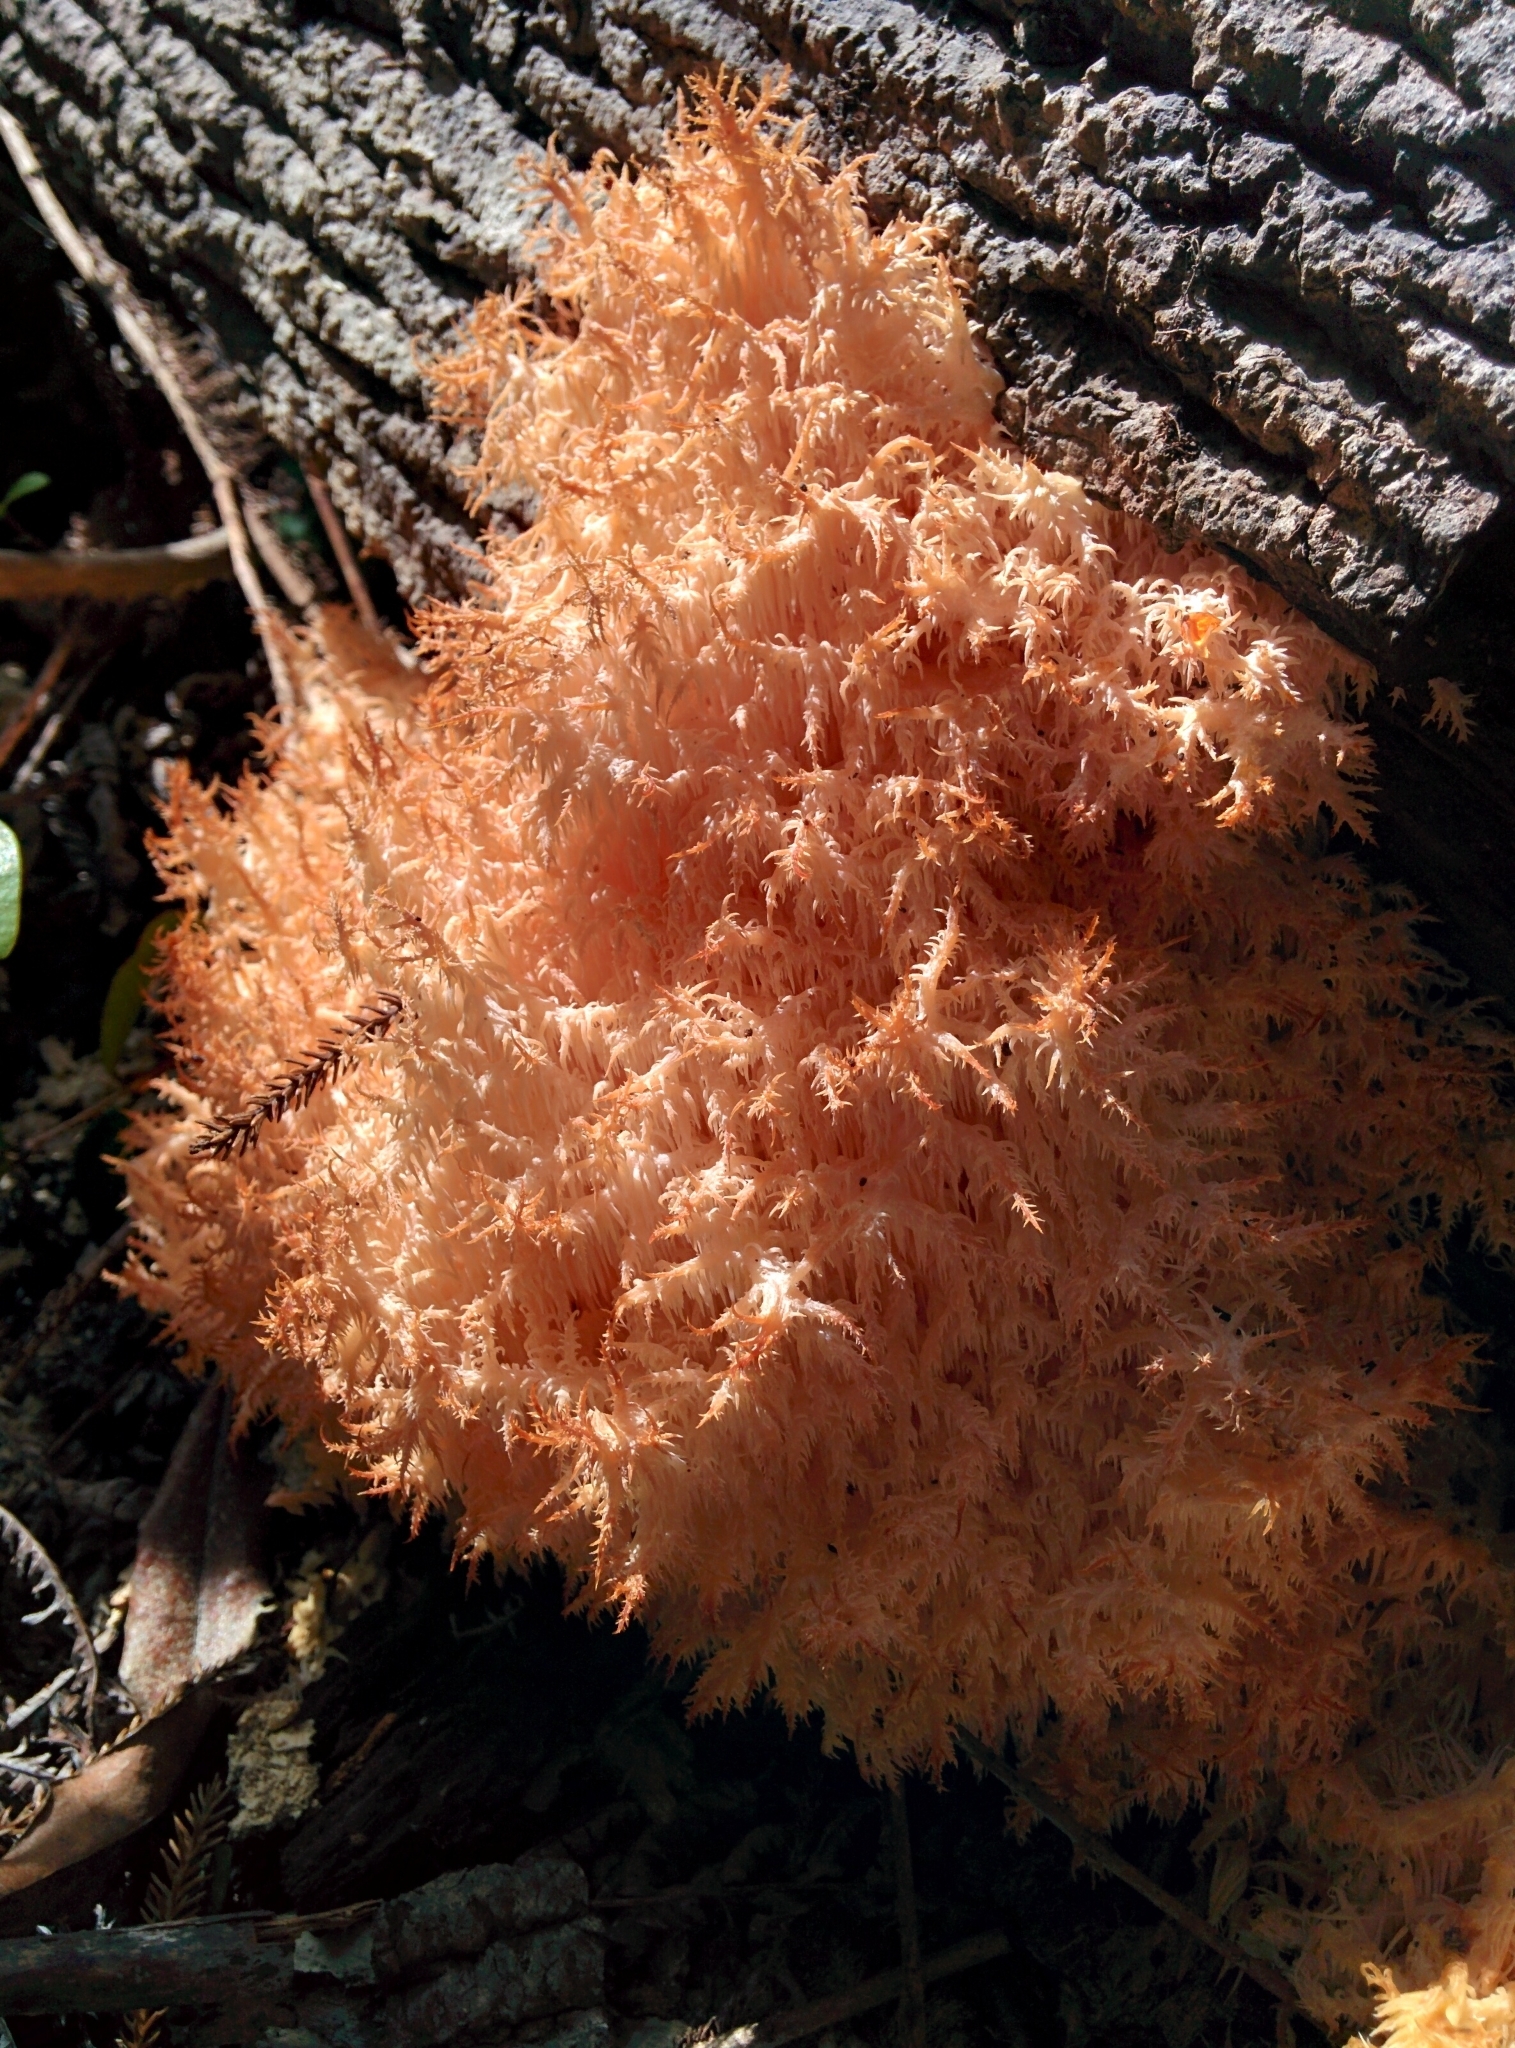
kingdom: Fungi
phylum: Basidiomycota
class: Agaricomycetes
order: Russulales
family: Hericiaceae
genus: Hericium
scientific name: Hericium novae-zealandiae
